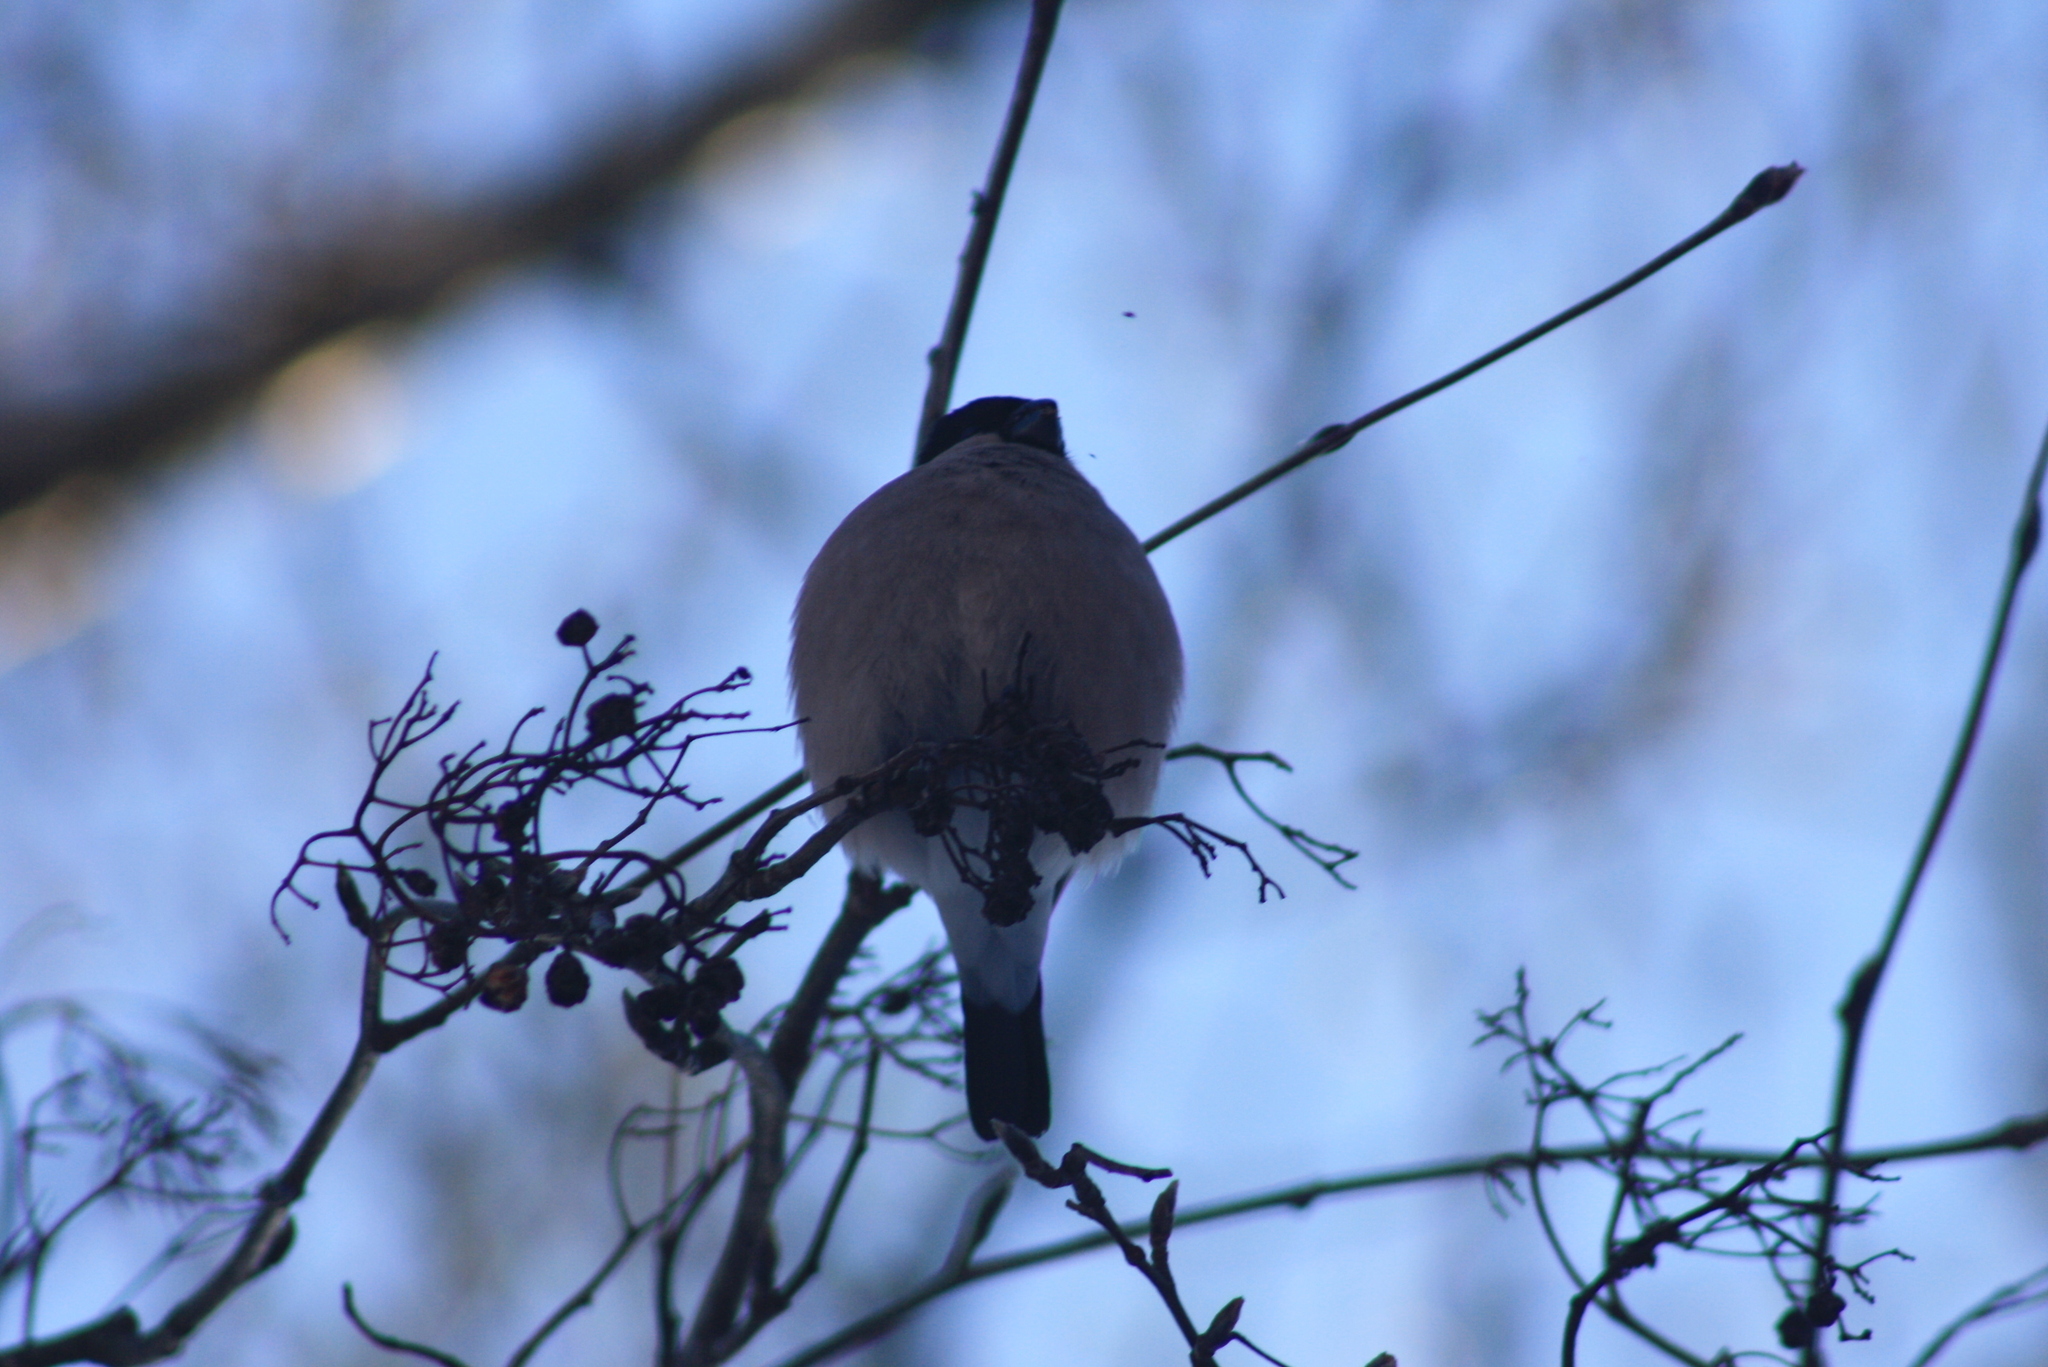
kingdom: Animalia
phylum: Chordata
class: Aves
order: Passeriformes
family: Fringillidae
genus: Pyrrhula
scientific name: Pyrrhula pyrrhula
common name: Eurasian bullfinch
